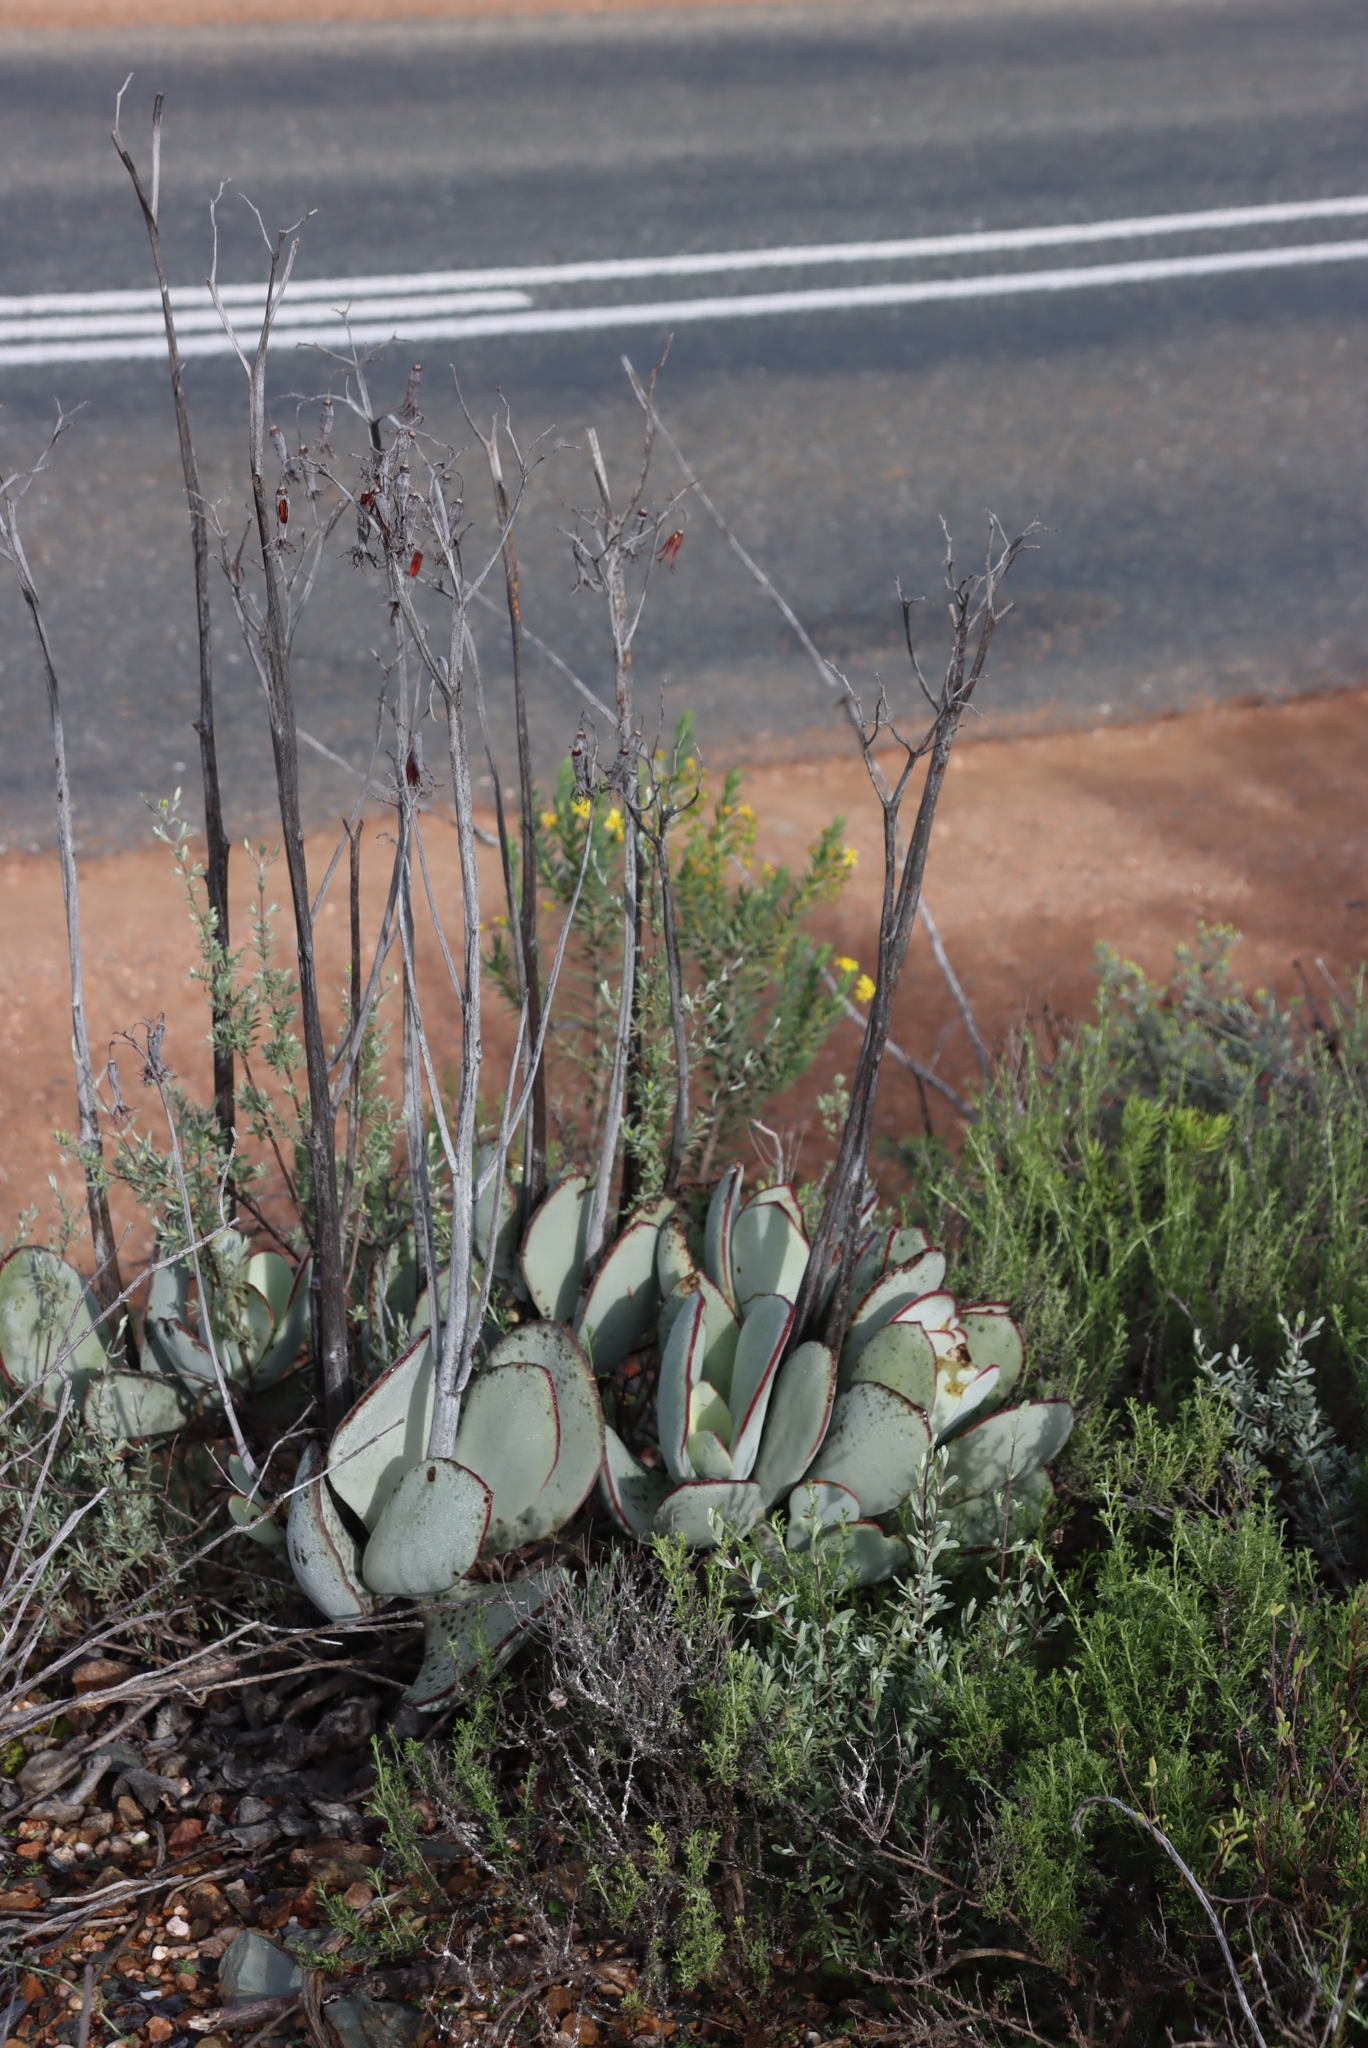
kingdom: Plantae
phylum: Tracheophyta
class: Magnoliopsida
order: Saxifragales
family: Crassulaceae
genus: Cotyledon
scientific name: Cotyledon orbiculata
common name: Pig's ear
